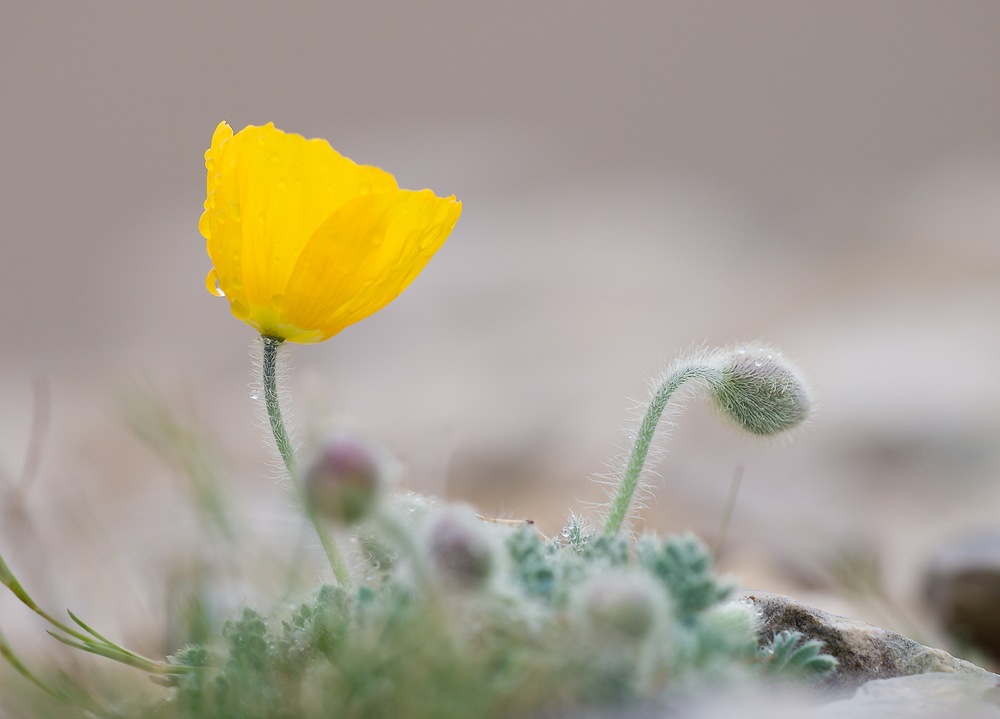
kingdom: Plantae
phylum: Tracheophyta
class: Magnoliopsida
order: Ranunculales
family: Papaveraceae
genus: Papaver
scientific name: Papaver alpinum
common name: Austrian poppy
